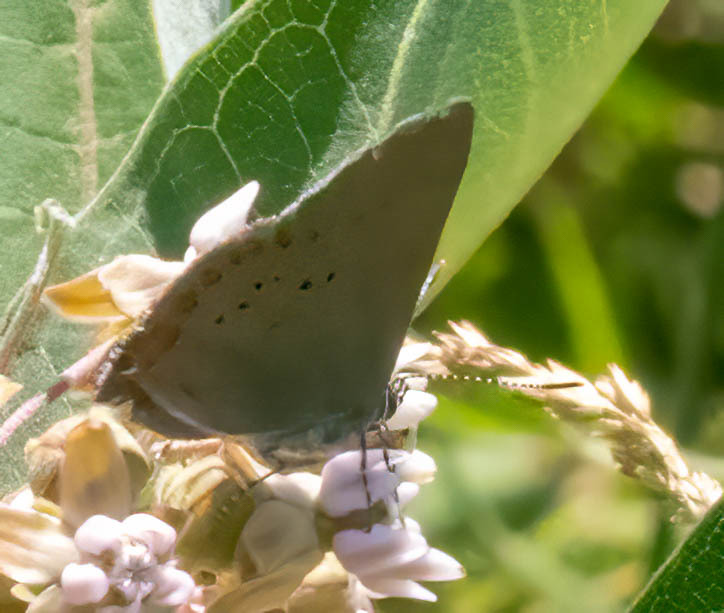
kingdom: Animalia
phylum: Arthropoda
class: Insecta
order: Lepidoptera
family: Lycaenidae
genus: Harkenclenus
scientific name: Harkenclenus titus
